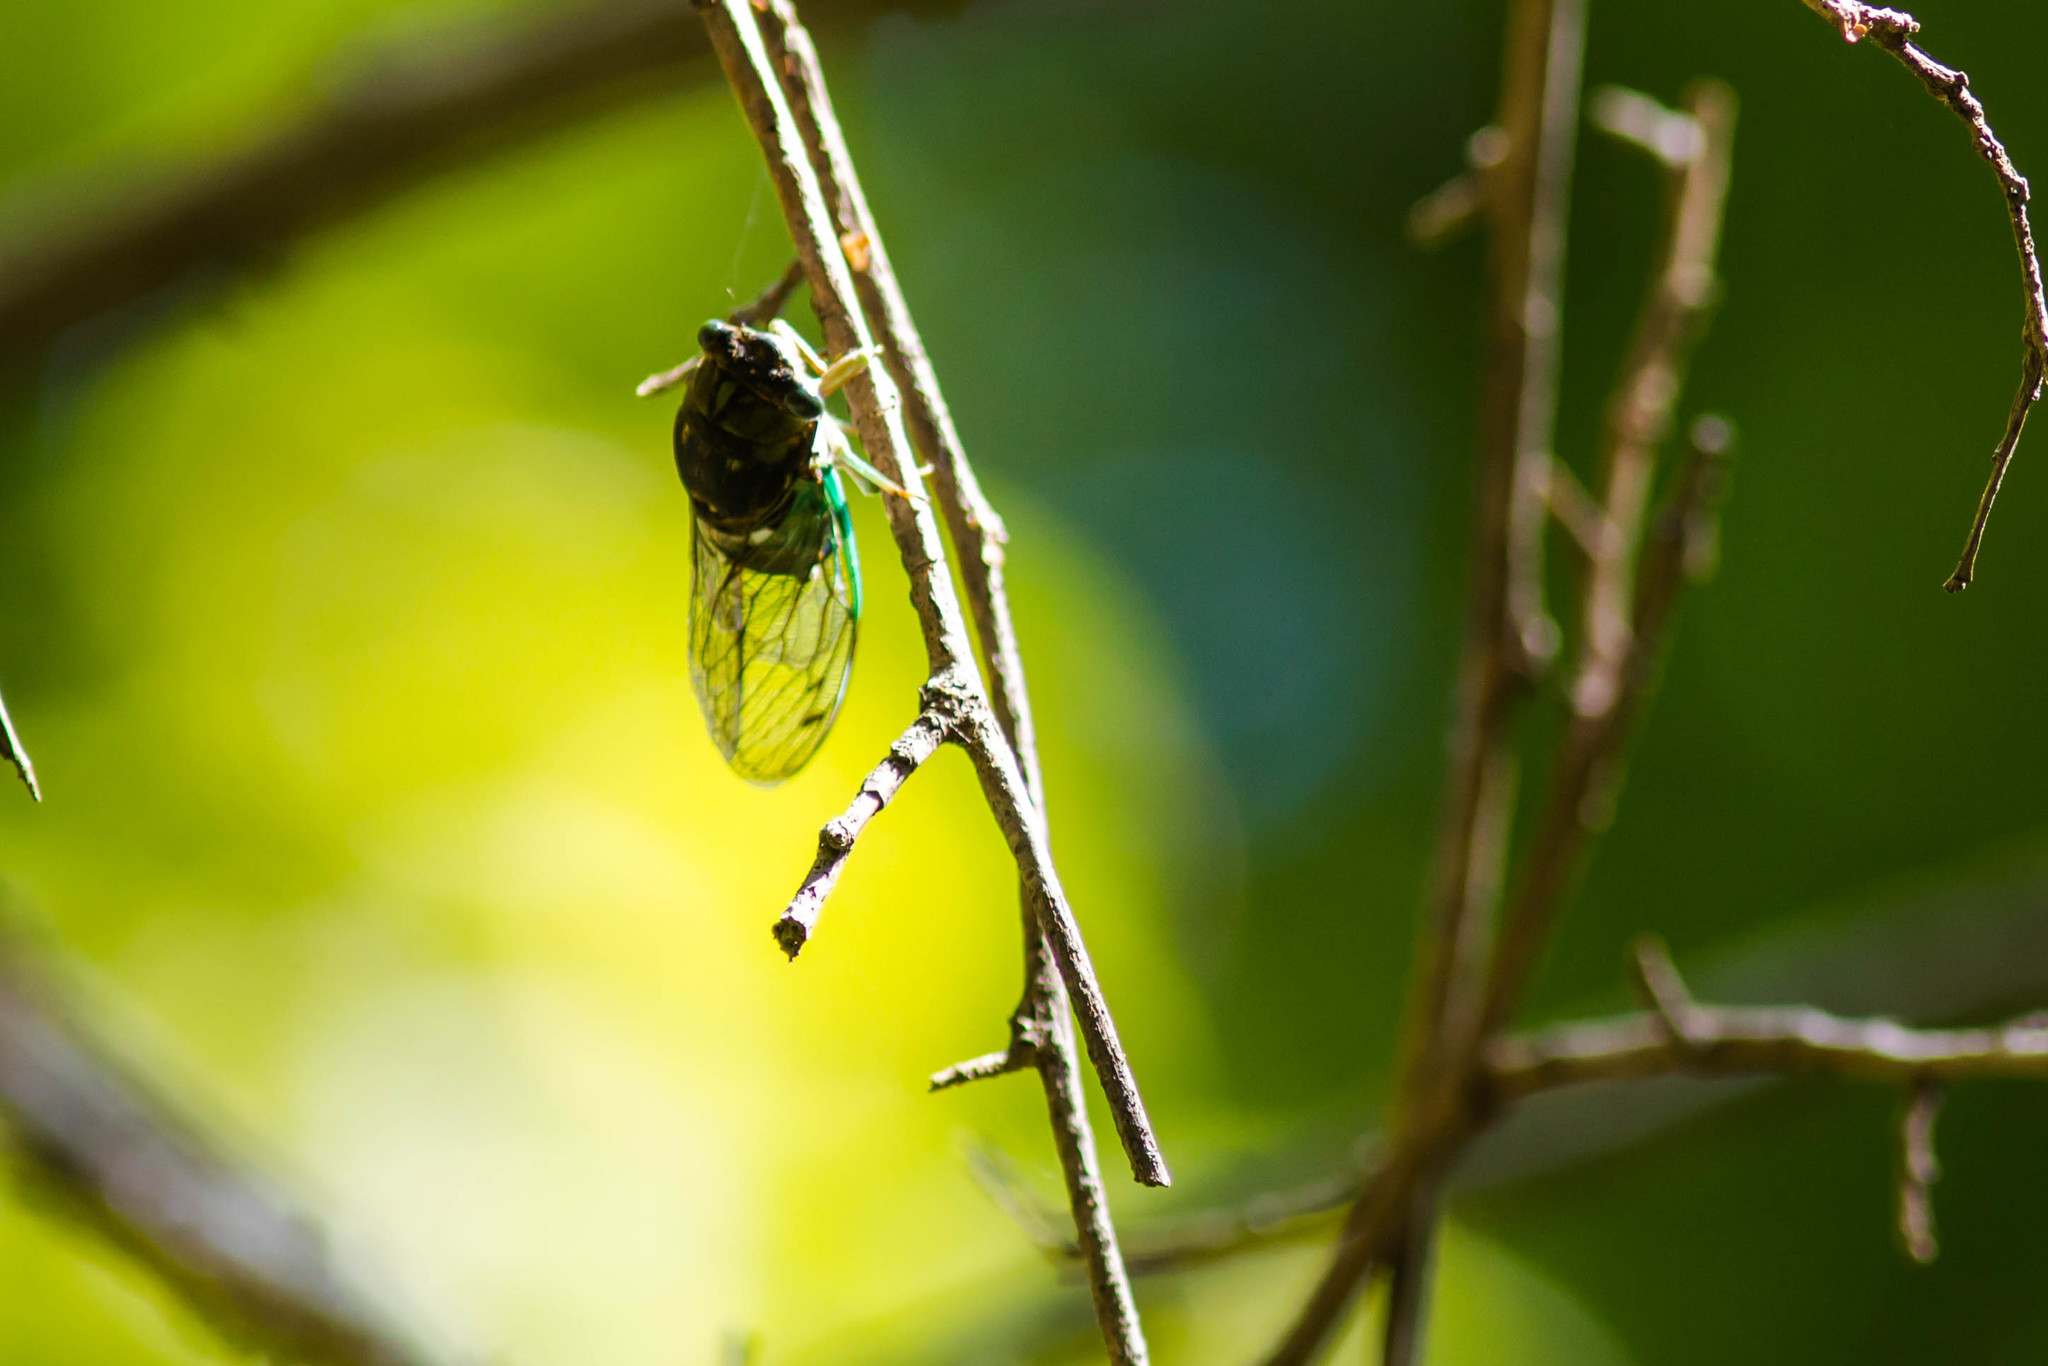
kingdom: Animalia
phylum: Arthropoda
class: Insecta
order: Hemiptera
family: Cicadidae
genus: Neotibicen
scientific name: Neotibicen tibicen
